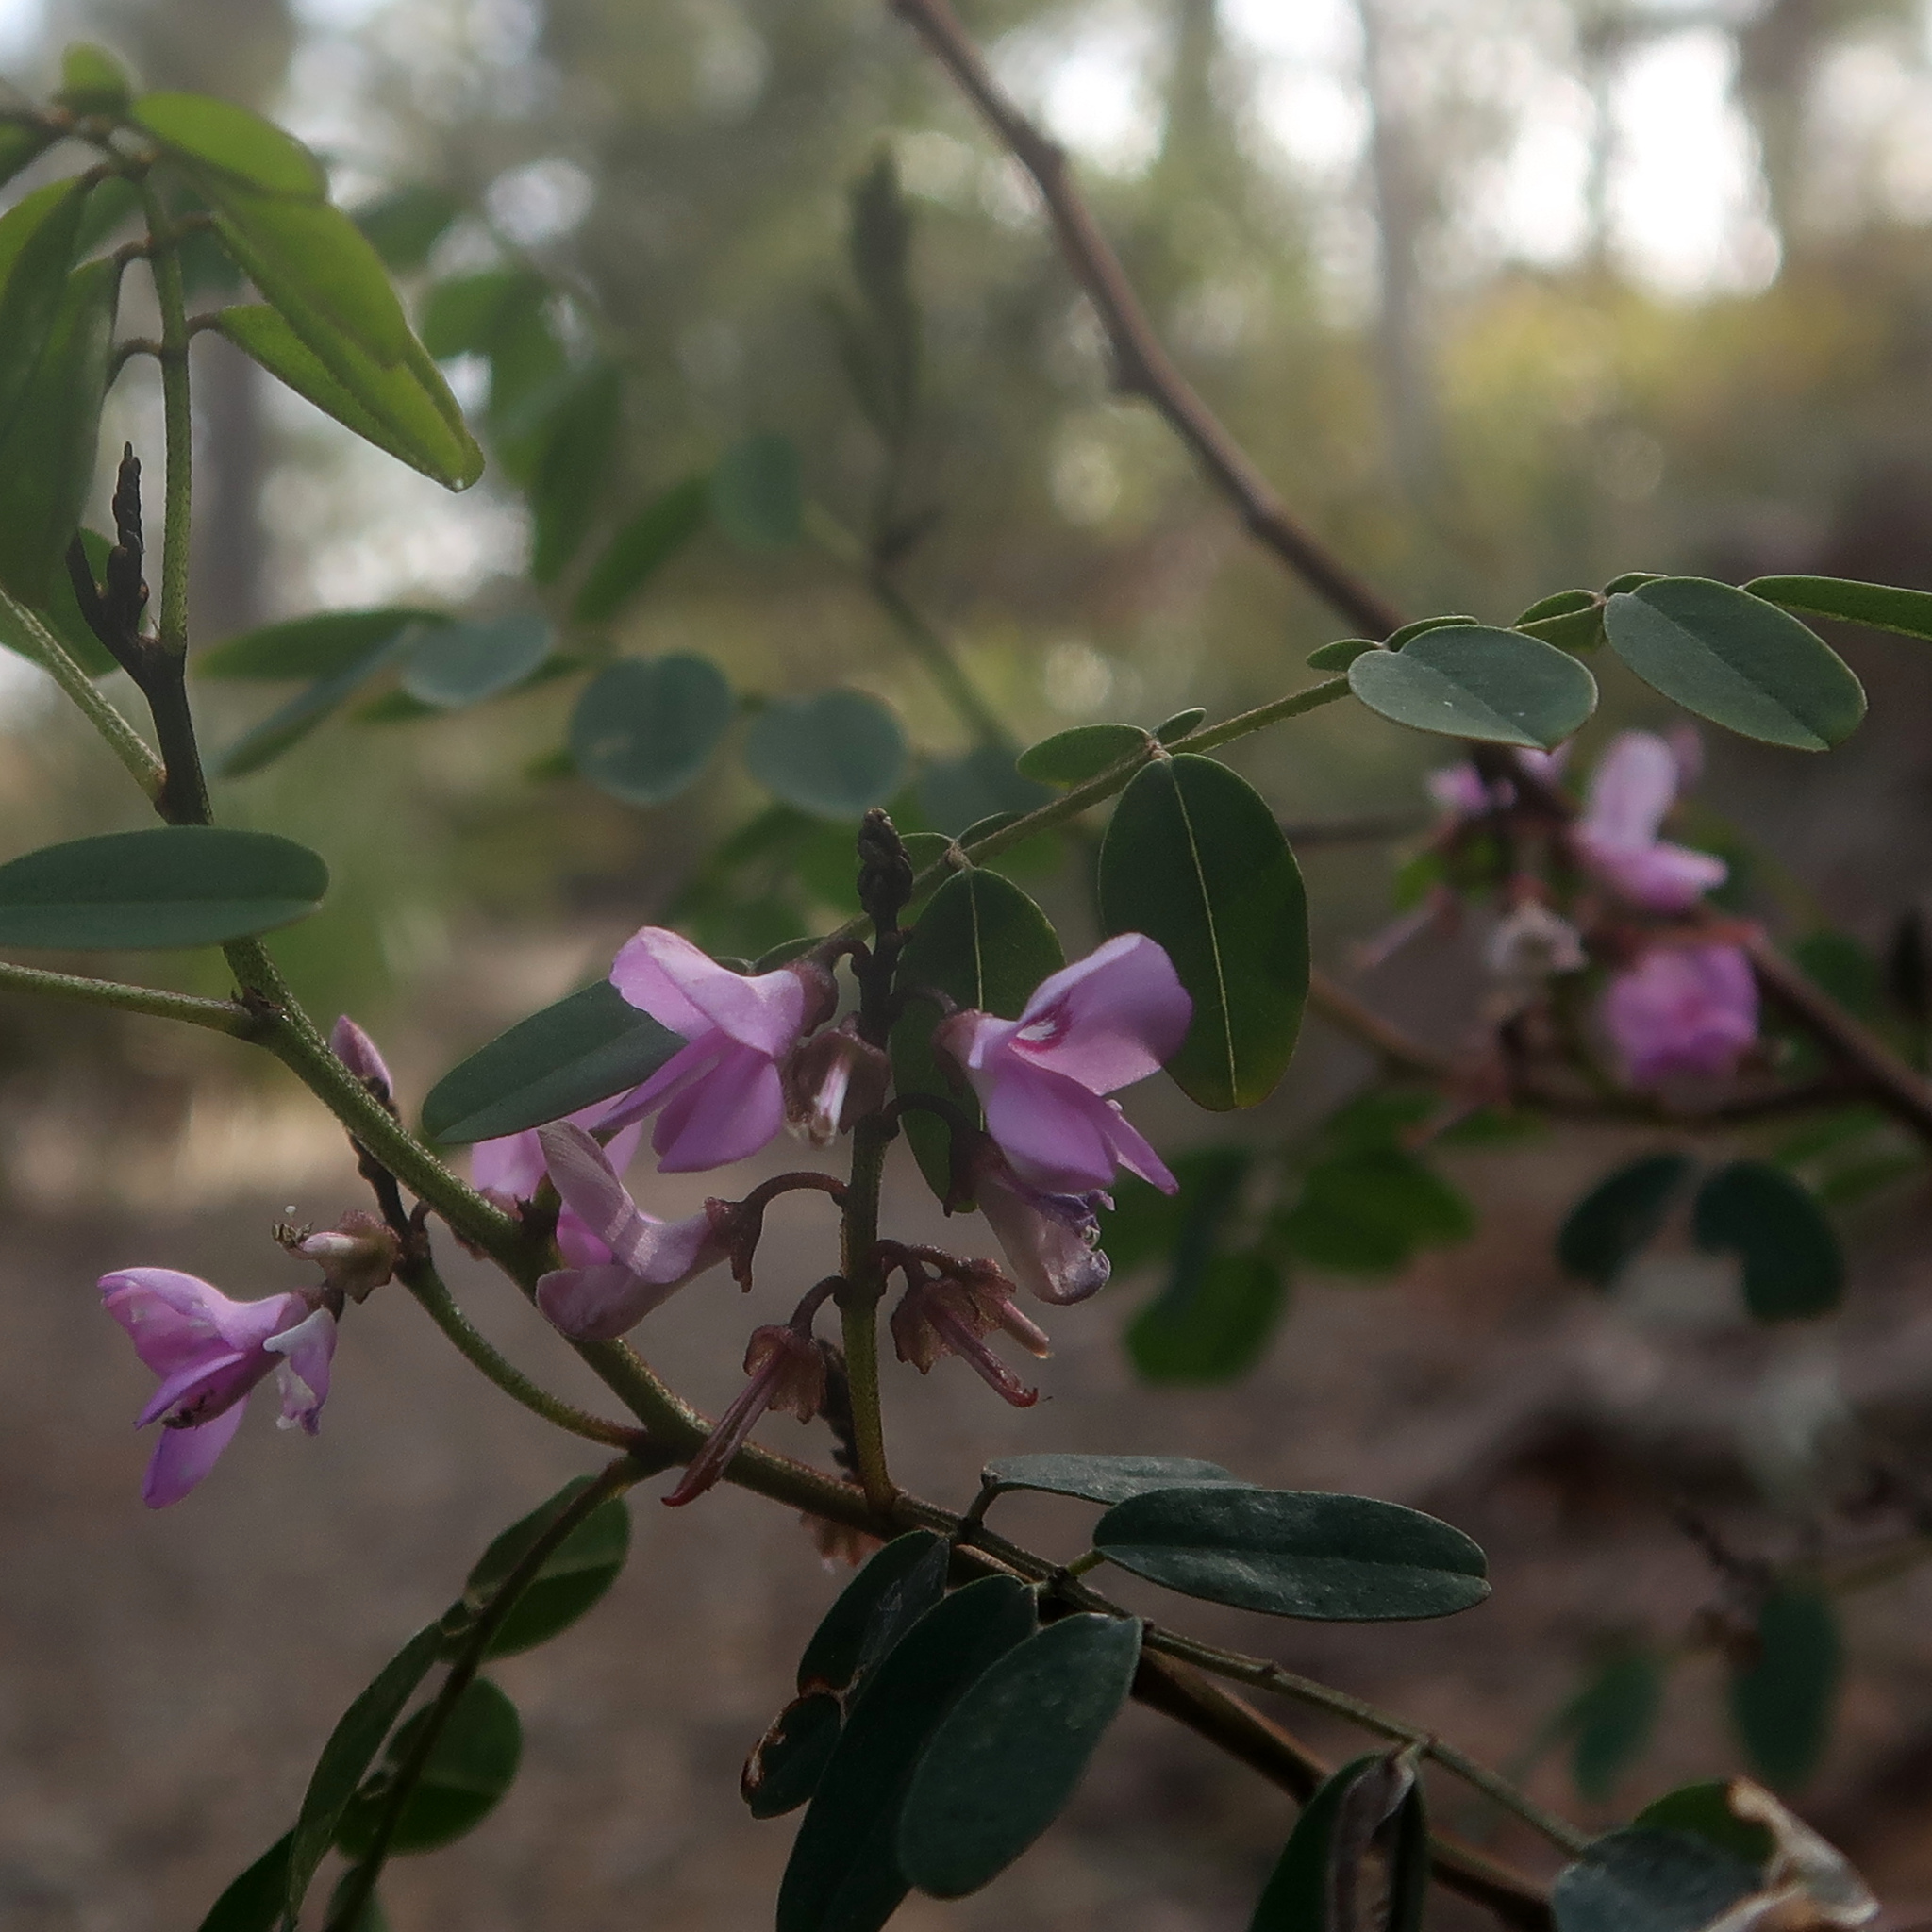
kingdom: Plantae
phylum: Tracheophyta
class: Magnoliopsida
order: Fabales
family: Fabaceae
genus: Indigofera
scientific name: Indigofera australis
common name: Australian indigo
